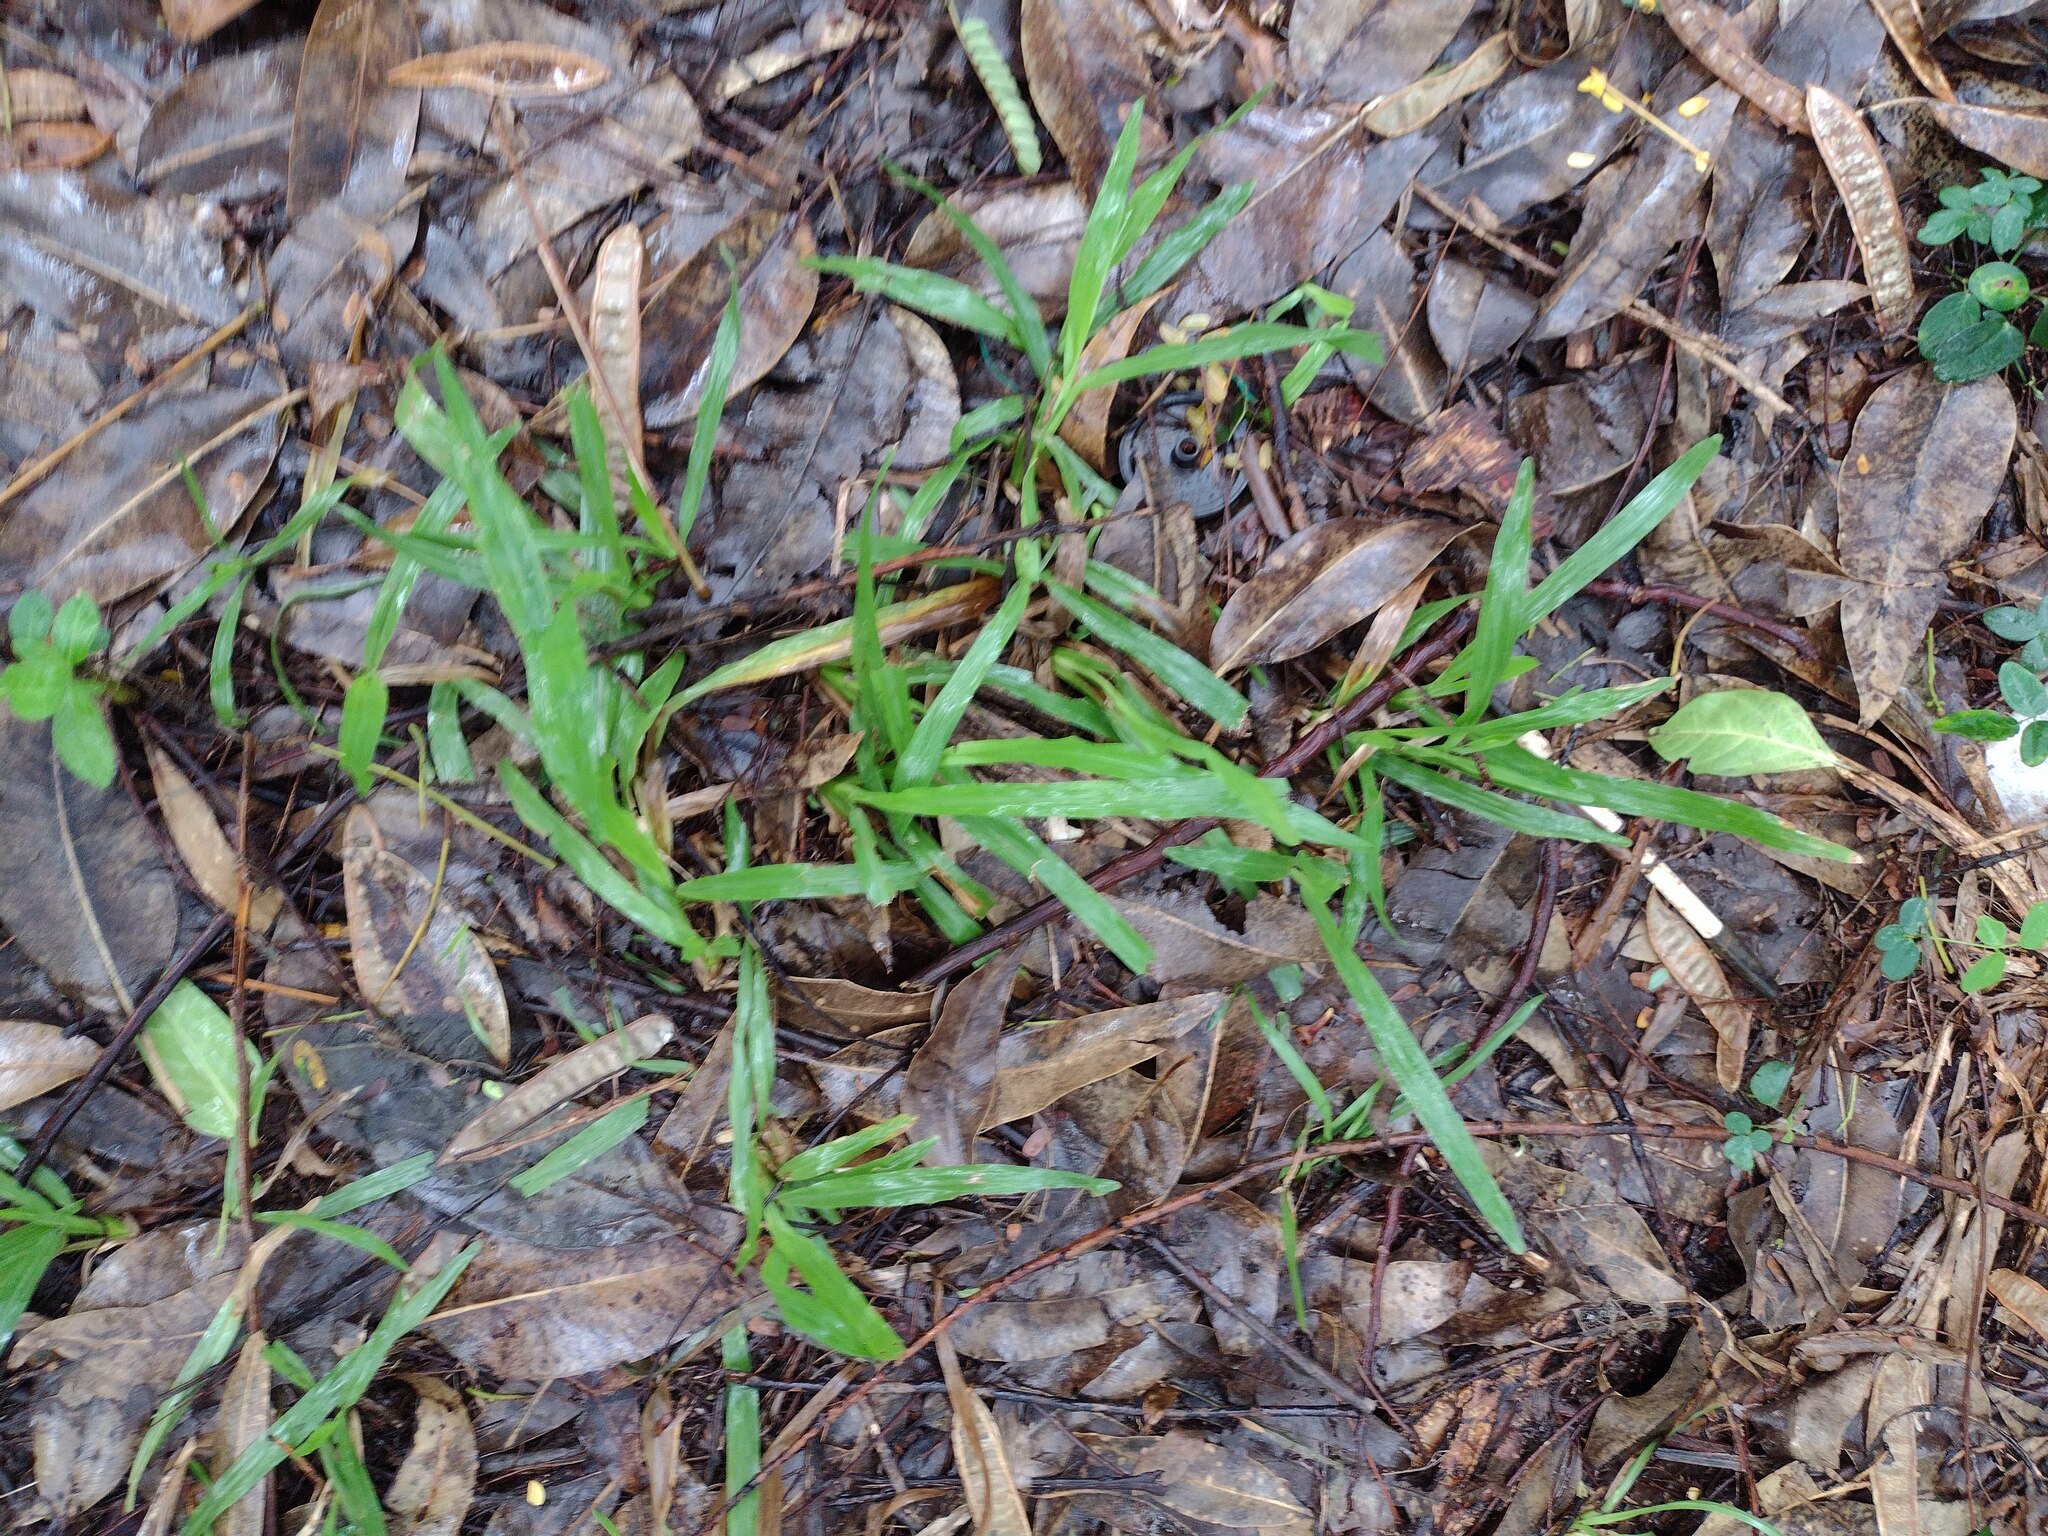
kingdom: Plantae
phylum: Tracheophyta
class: Liliopsida
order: Poales
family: Poaceae
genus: Axonopus
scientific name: Axonopus compressus
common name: American carpet grass
